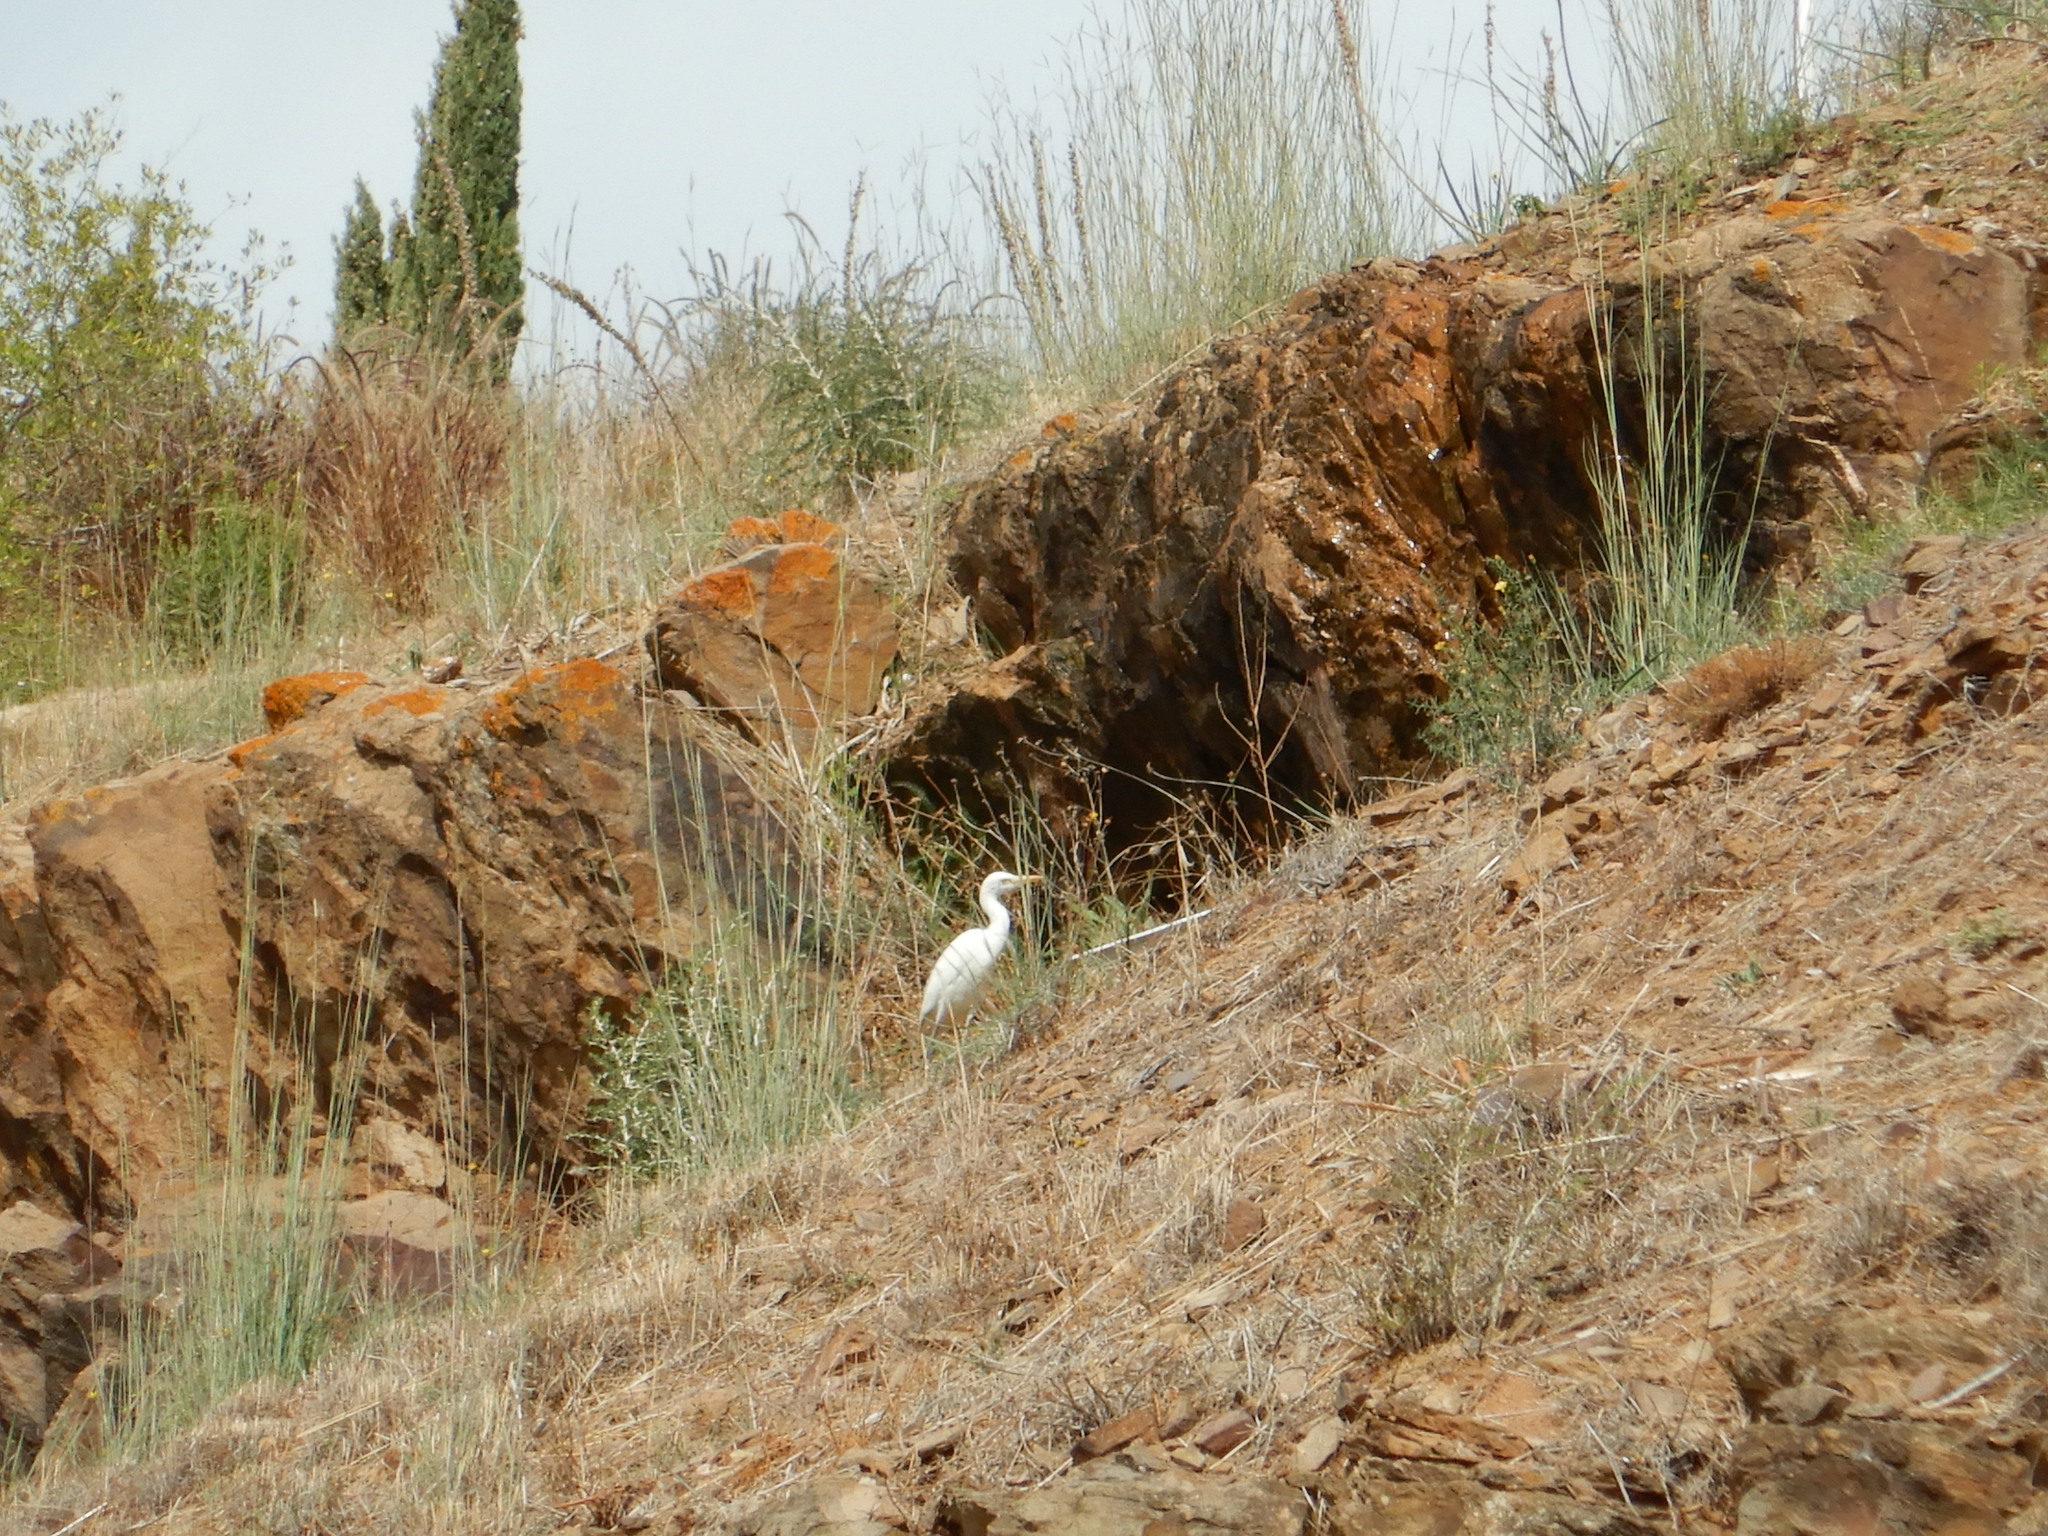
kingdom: Animalia
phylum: Chordata
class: Aves
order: Pelecaniformes
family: Ardeidae
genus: Bubulcus
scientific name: Bubulcus ibis
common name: Cattle egret
